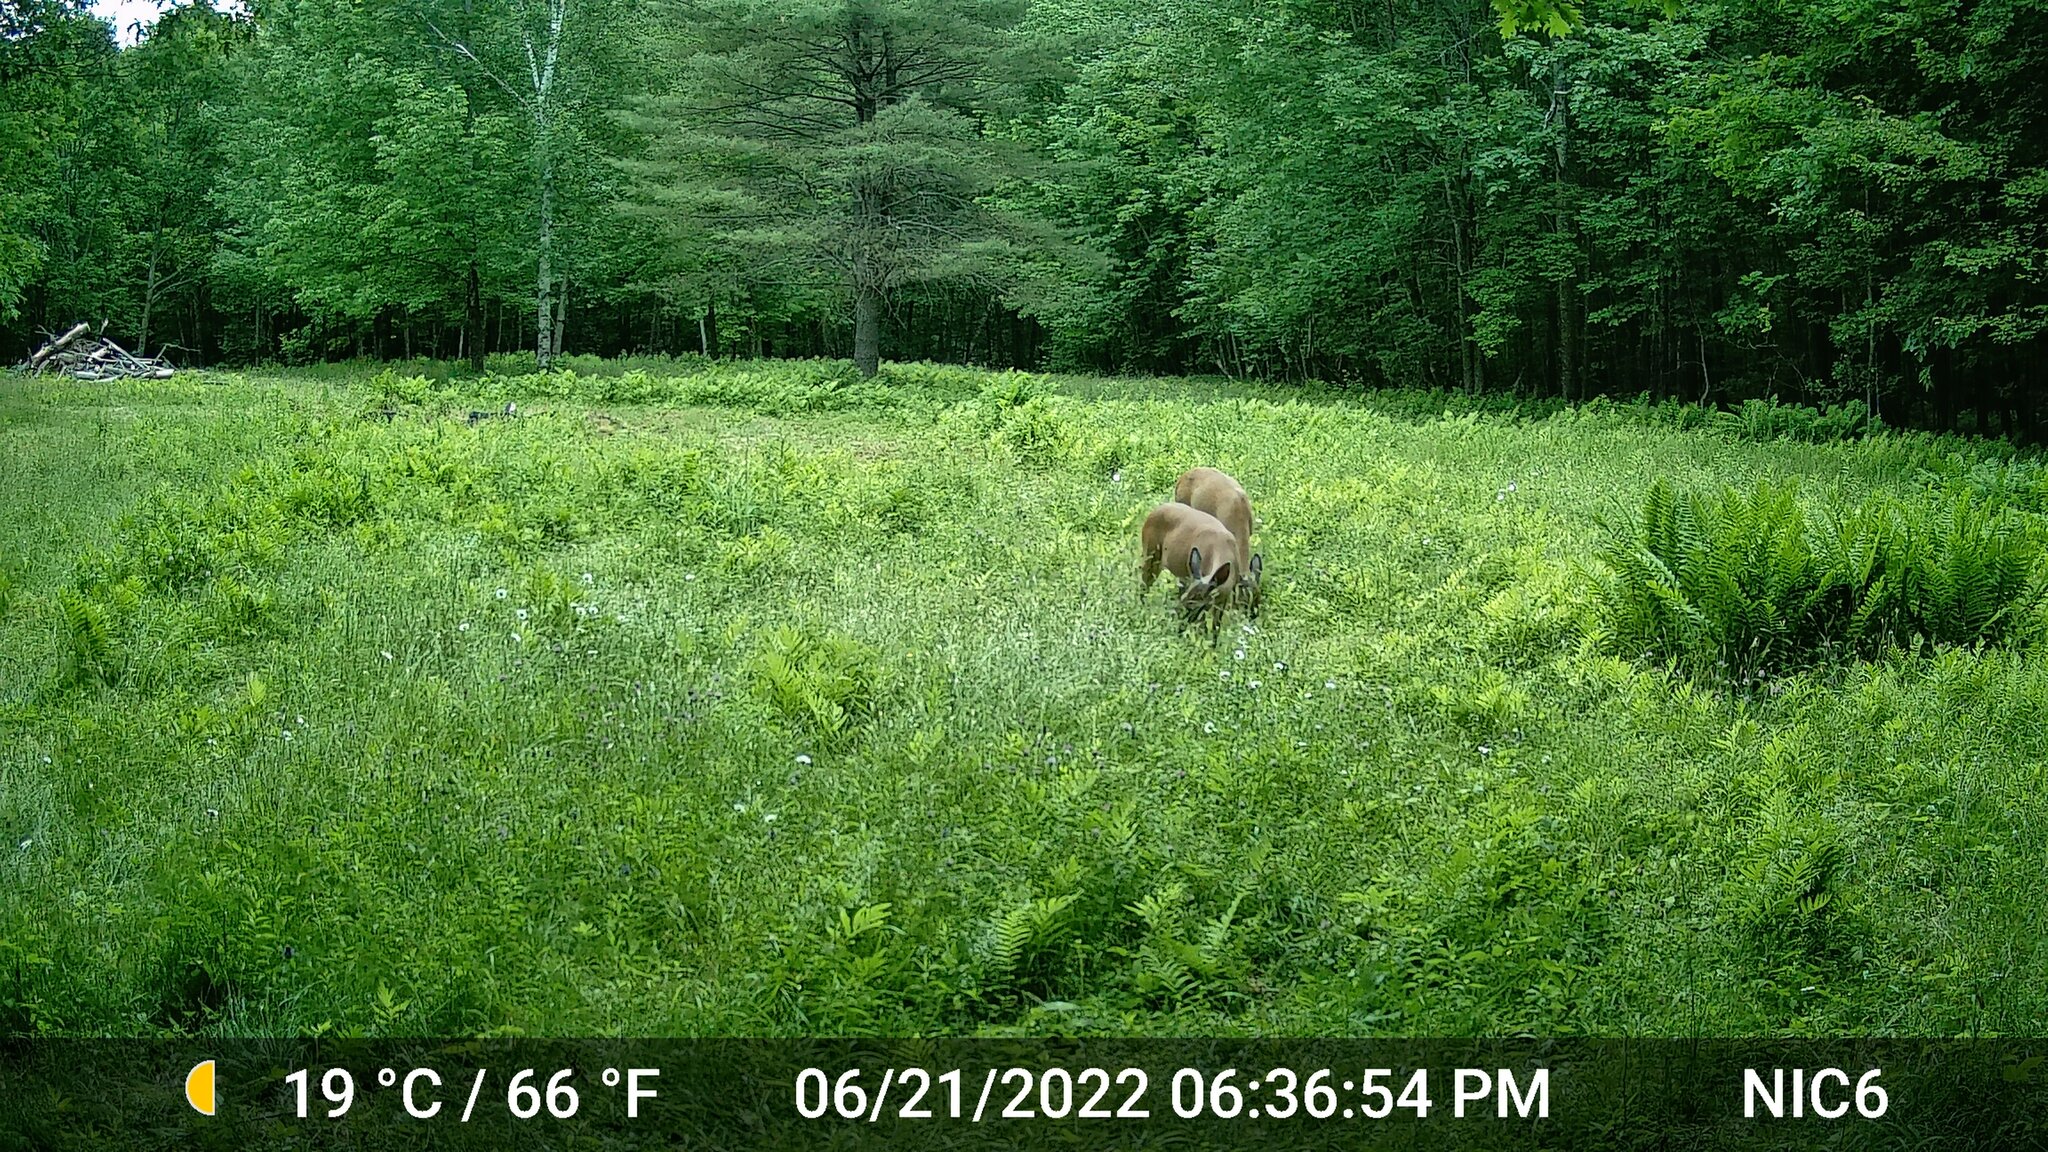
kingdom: Animalia
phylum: Chordata
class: Mammalia
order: Artiodactyla
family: Cervidae
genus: Odocoileus
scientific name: Odocoileus virginianus
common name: White-tailed deer
